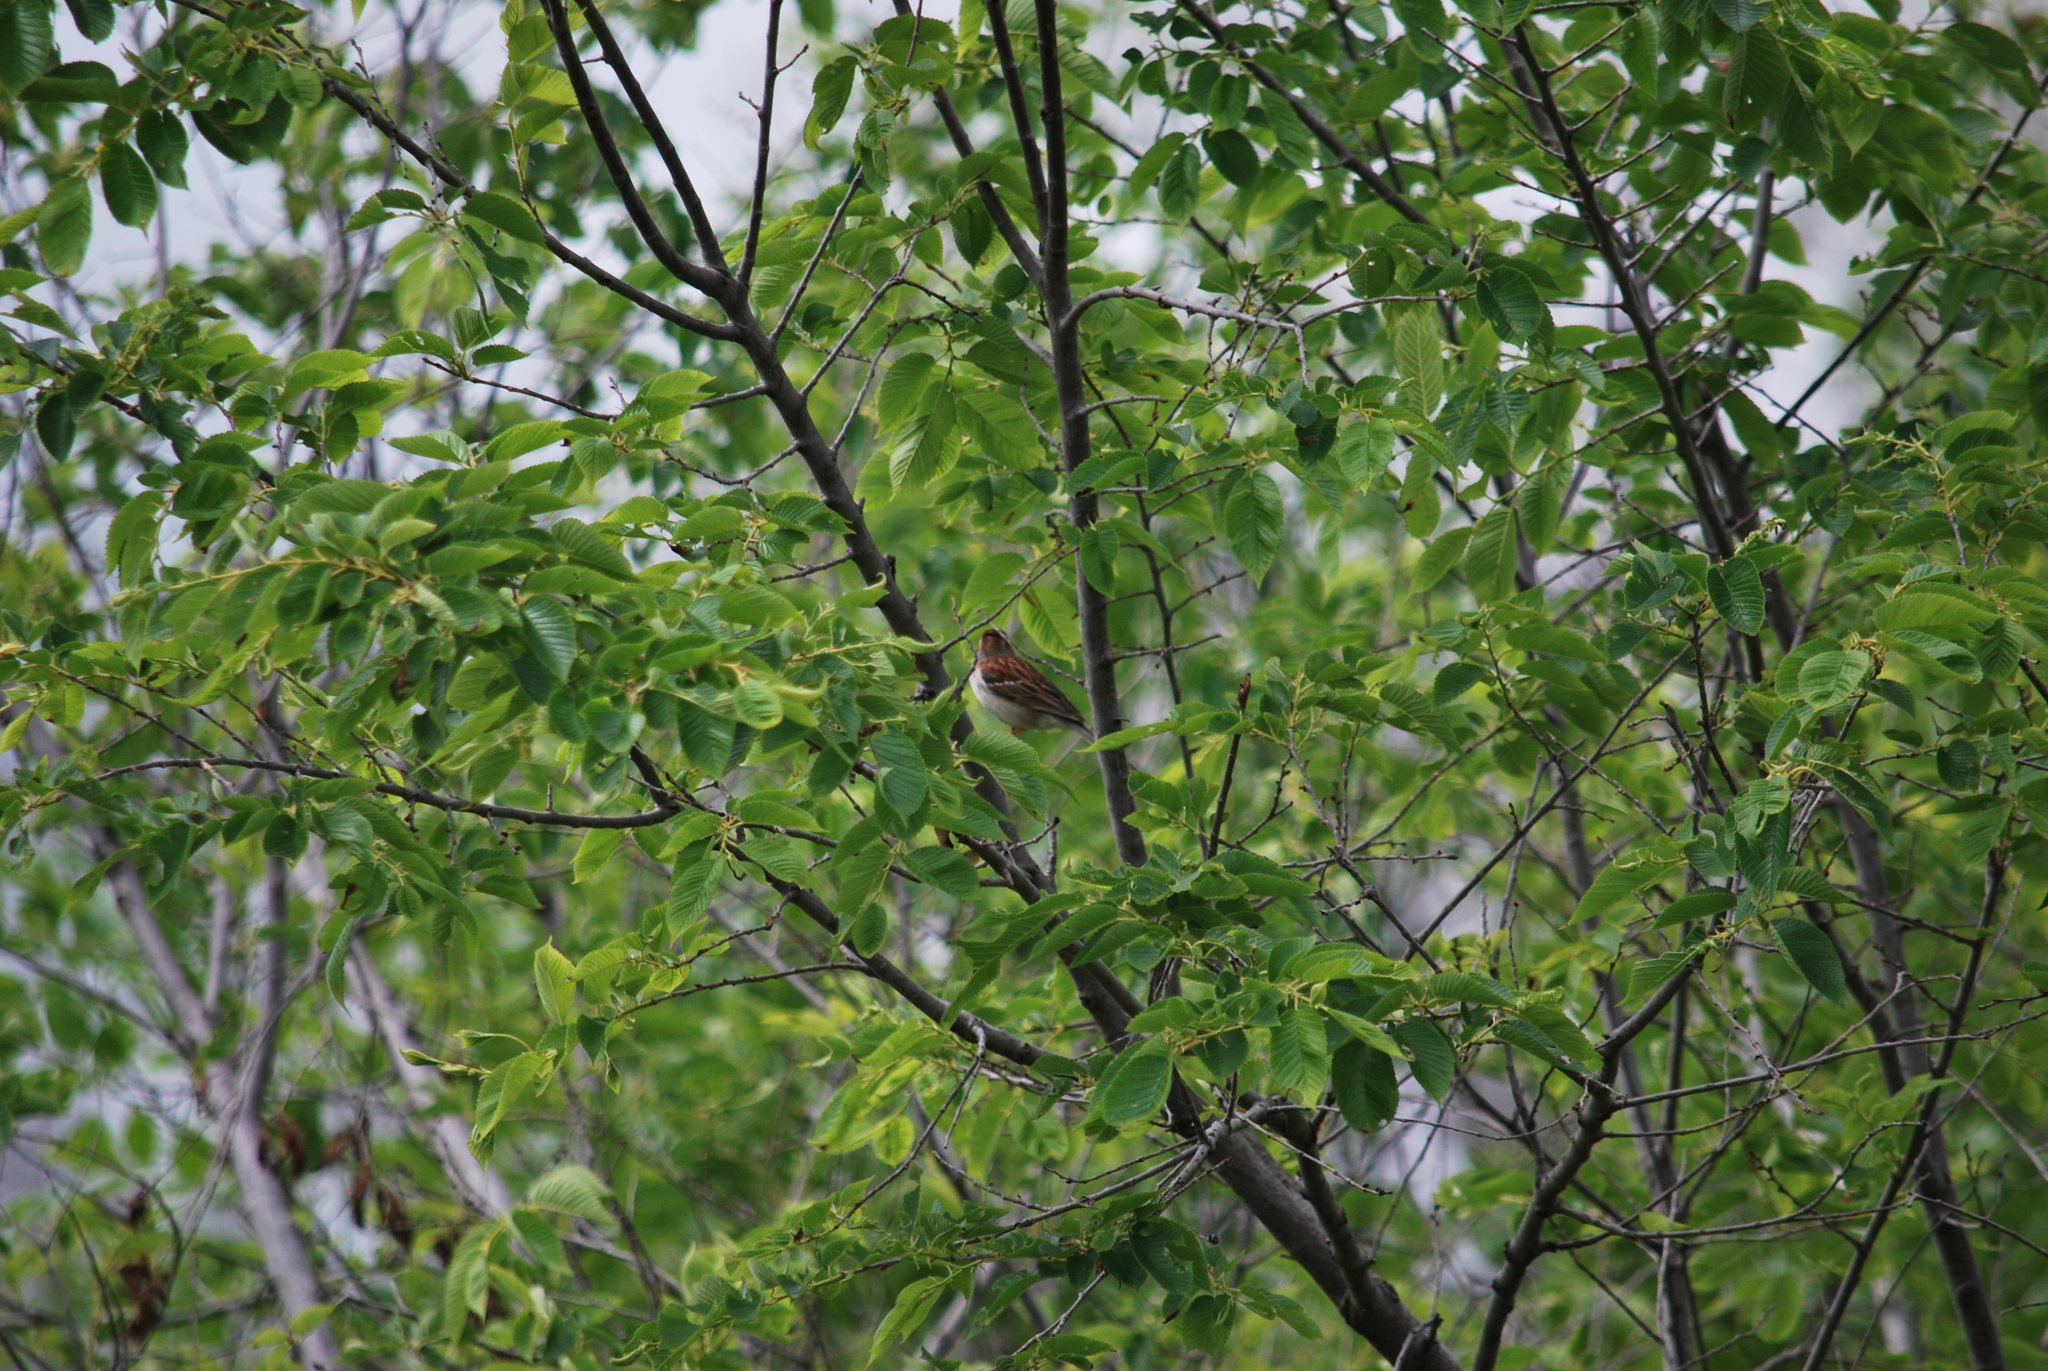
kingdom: Animalia
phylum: Chordata
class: Aves
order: Passeriformes
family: Passerellidae
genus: Spizella
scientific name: Spizella pusilla
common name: Field sparrow
